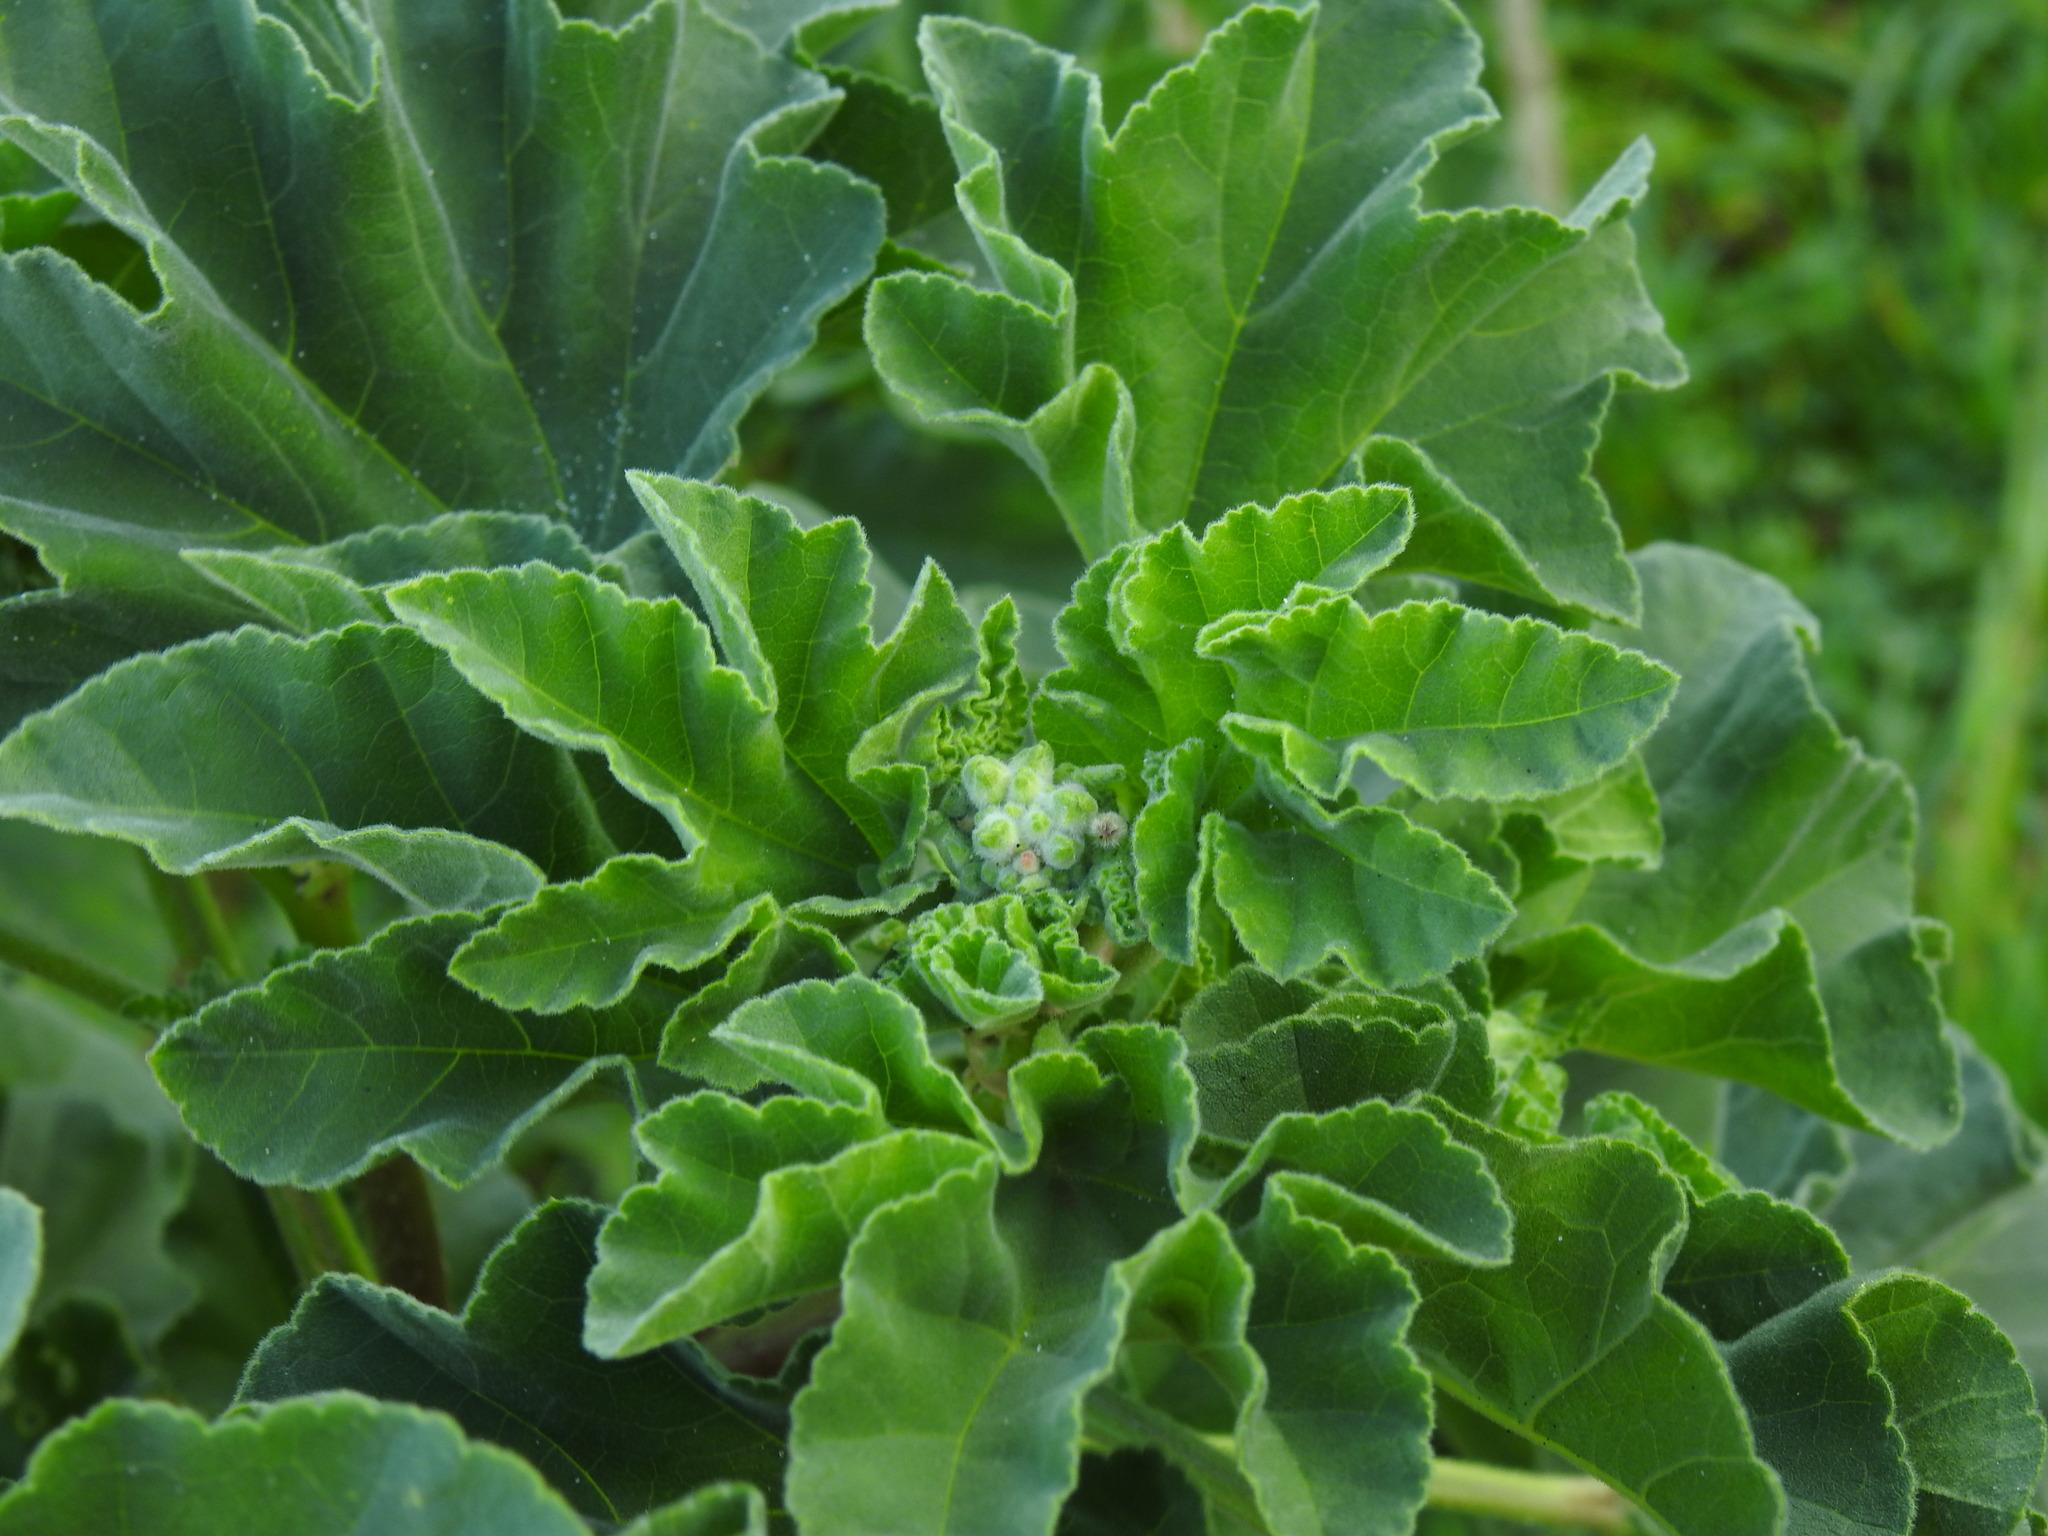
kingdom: Plantae
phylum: Tracheophyta
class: Magnoliopsida
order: Malvales
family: Malvaceae
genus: Malva
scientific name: Malva arborea
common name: Tree mallow
